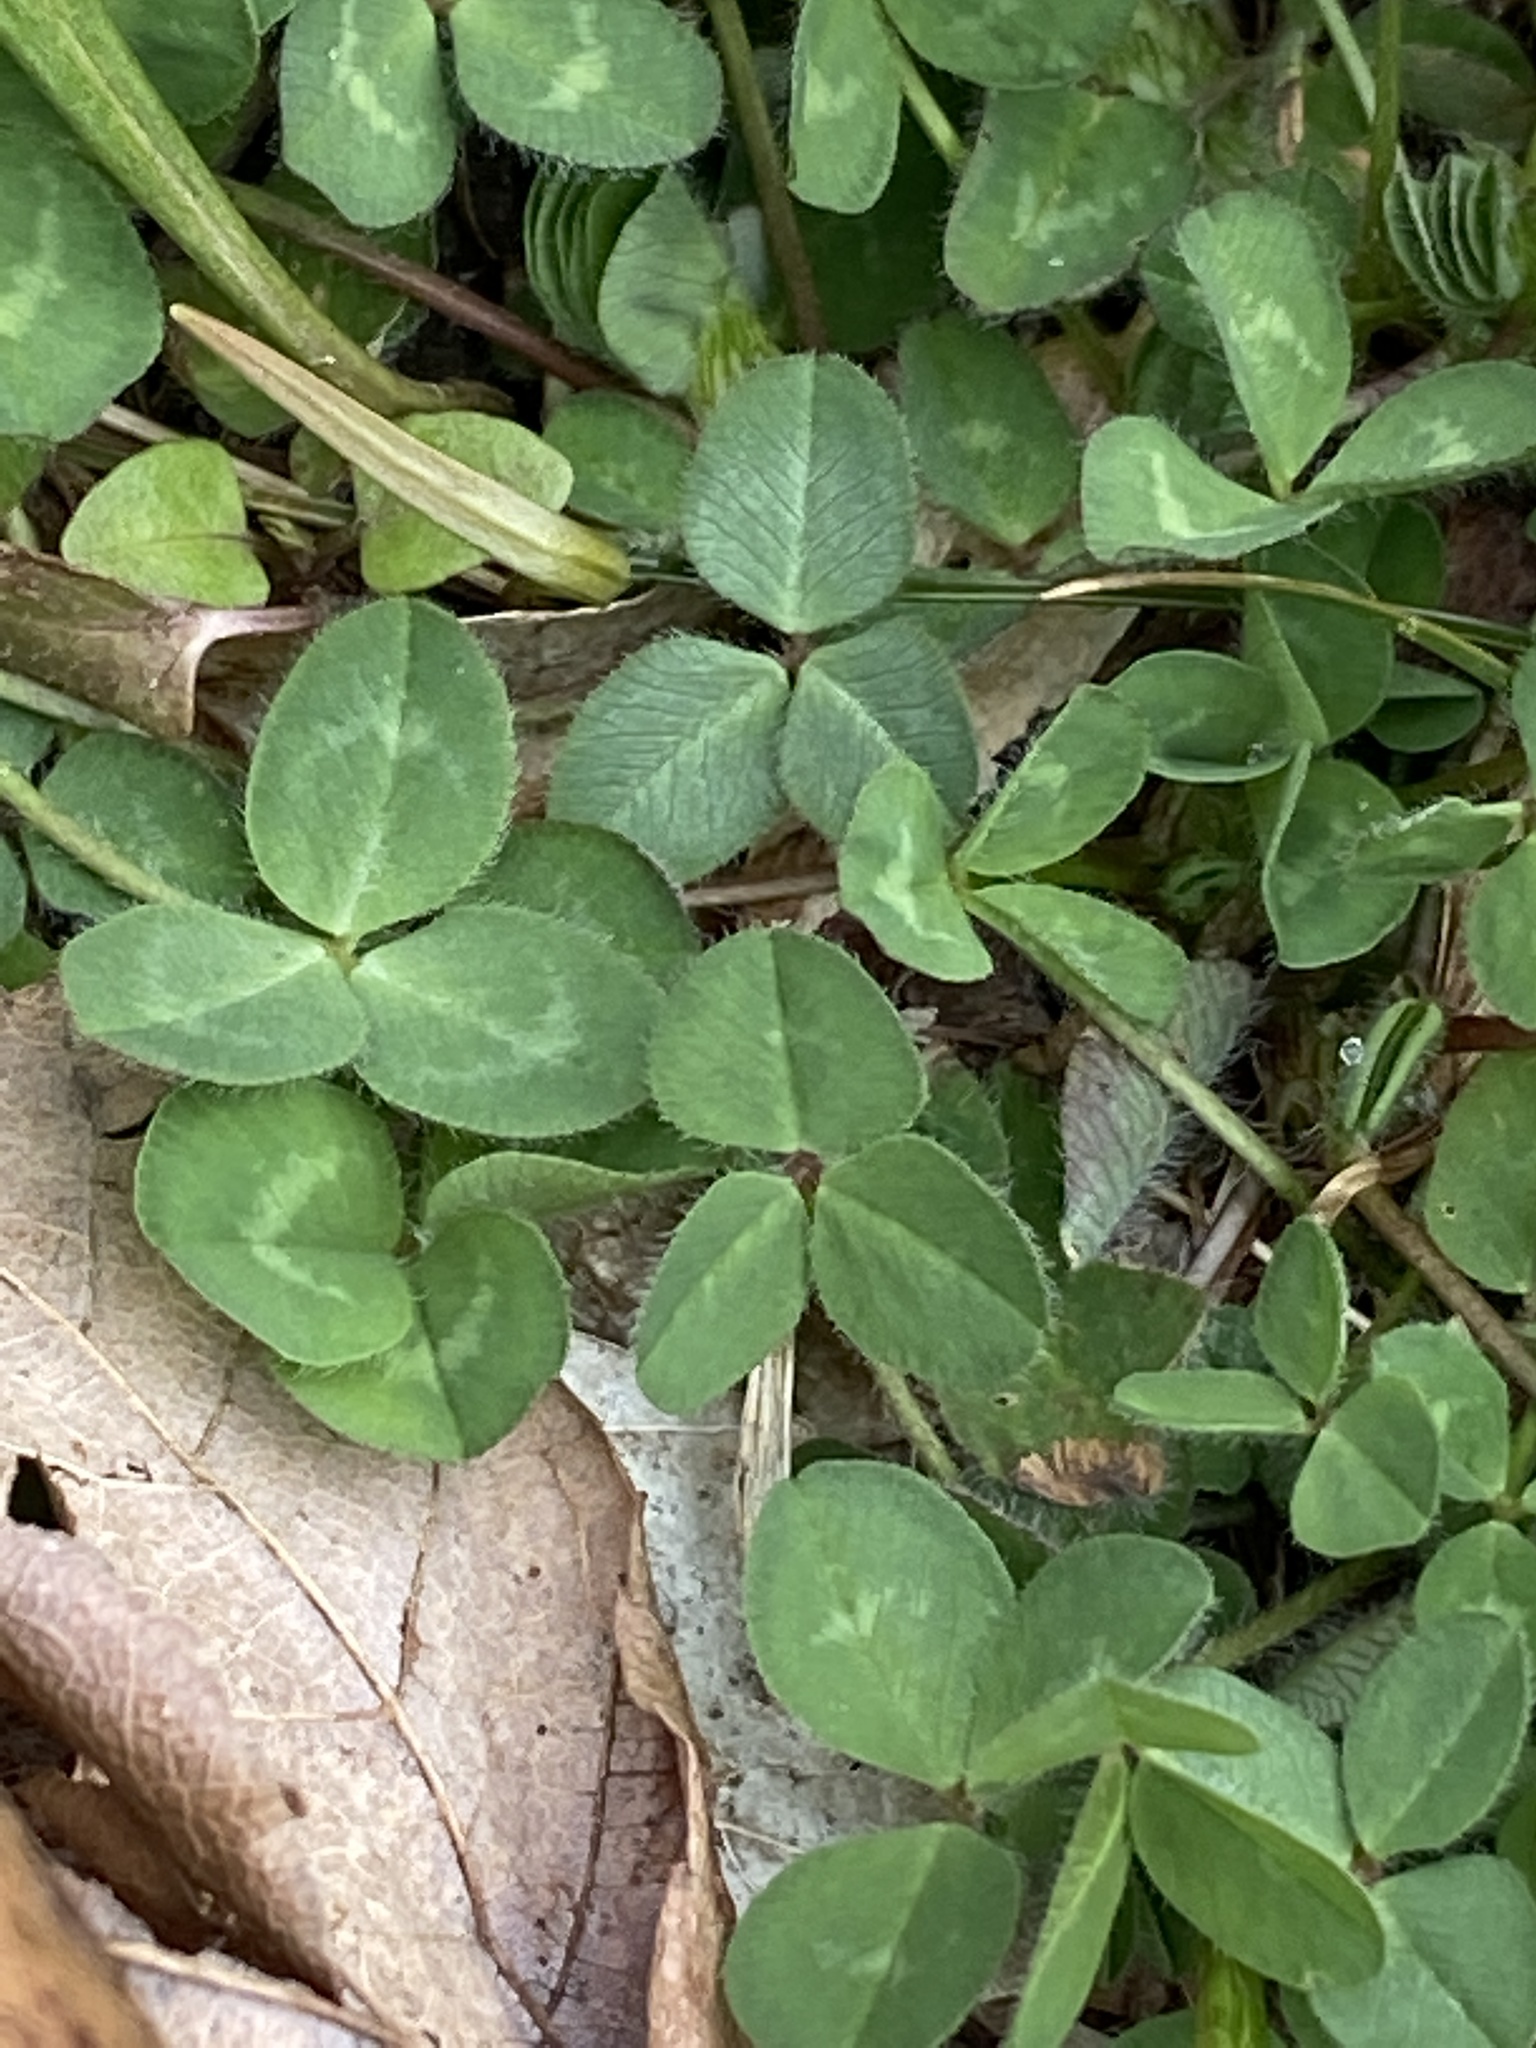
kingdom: Plantae
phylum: Tracheophyta
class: Magnoliopsida
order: Fabales
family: Fabaceae
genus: Trifolium
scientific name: Trifolium pratense
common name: Red clover
